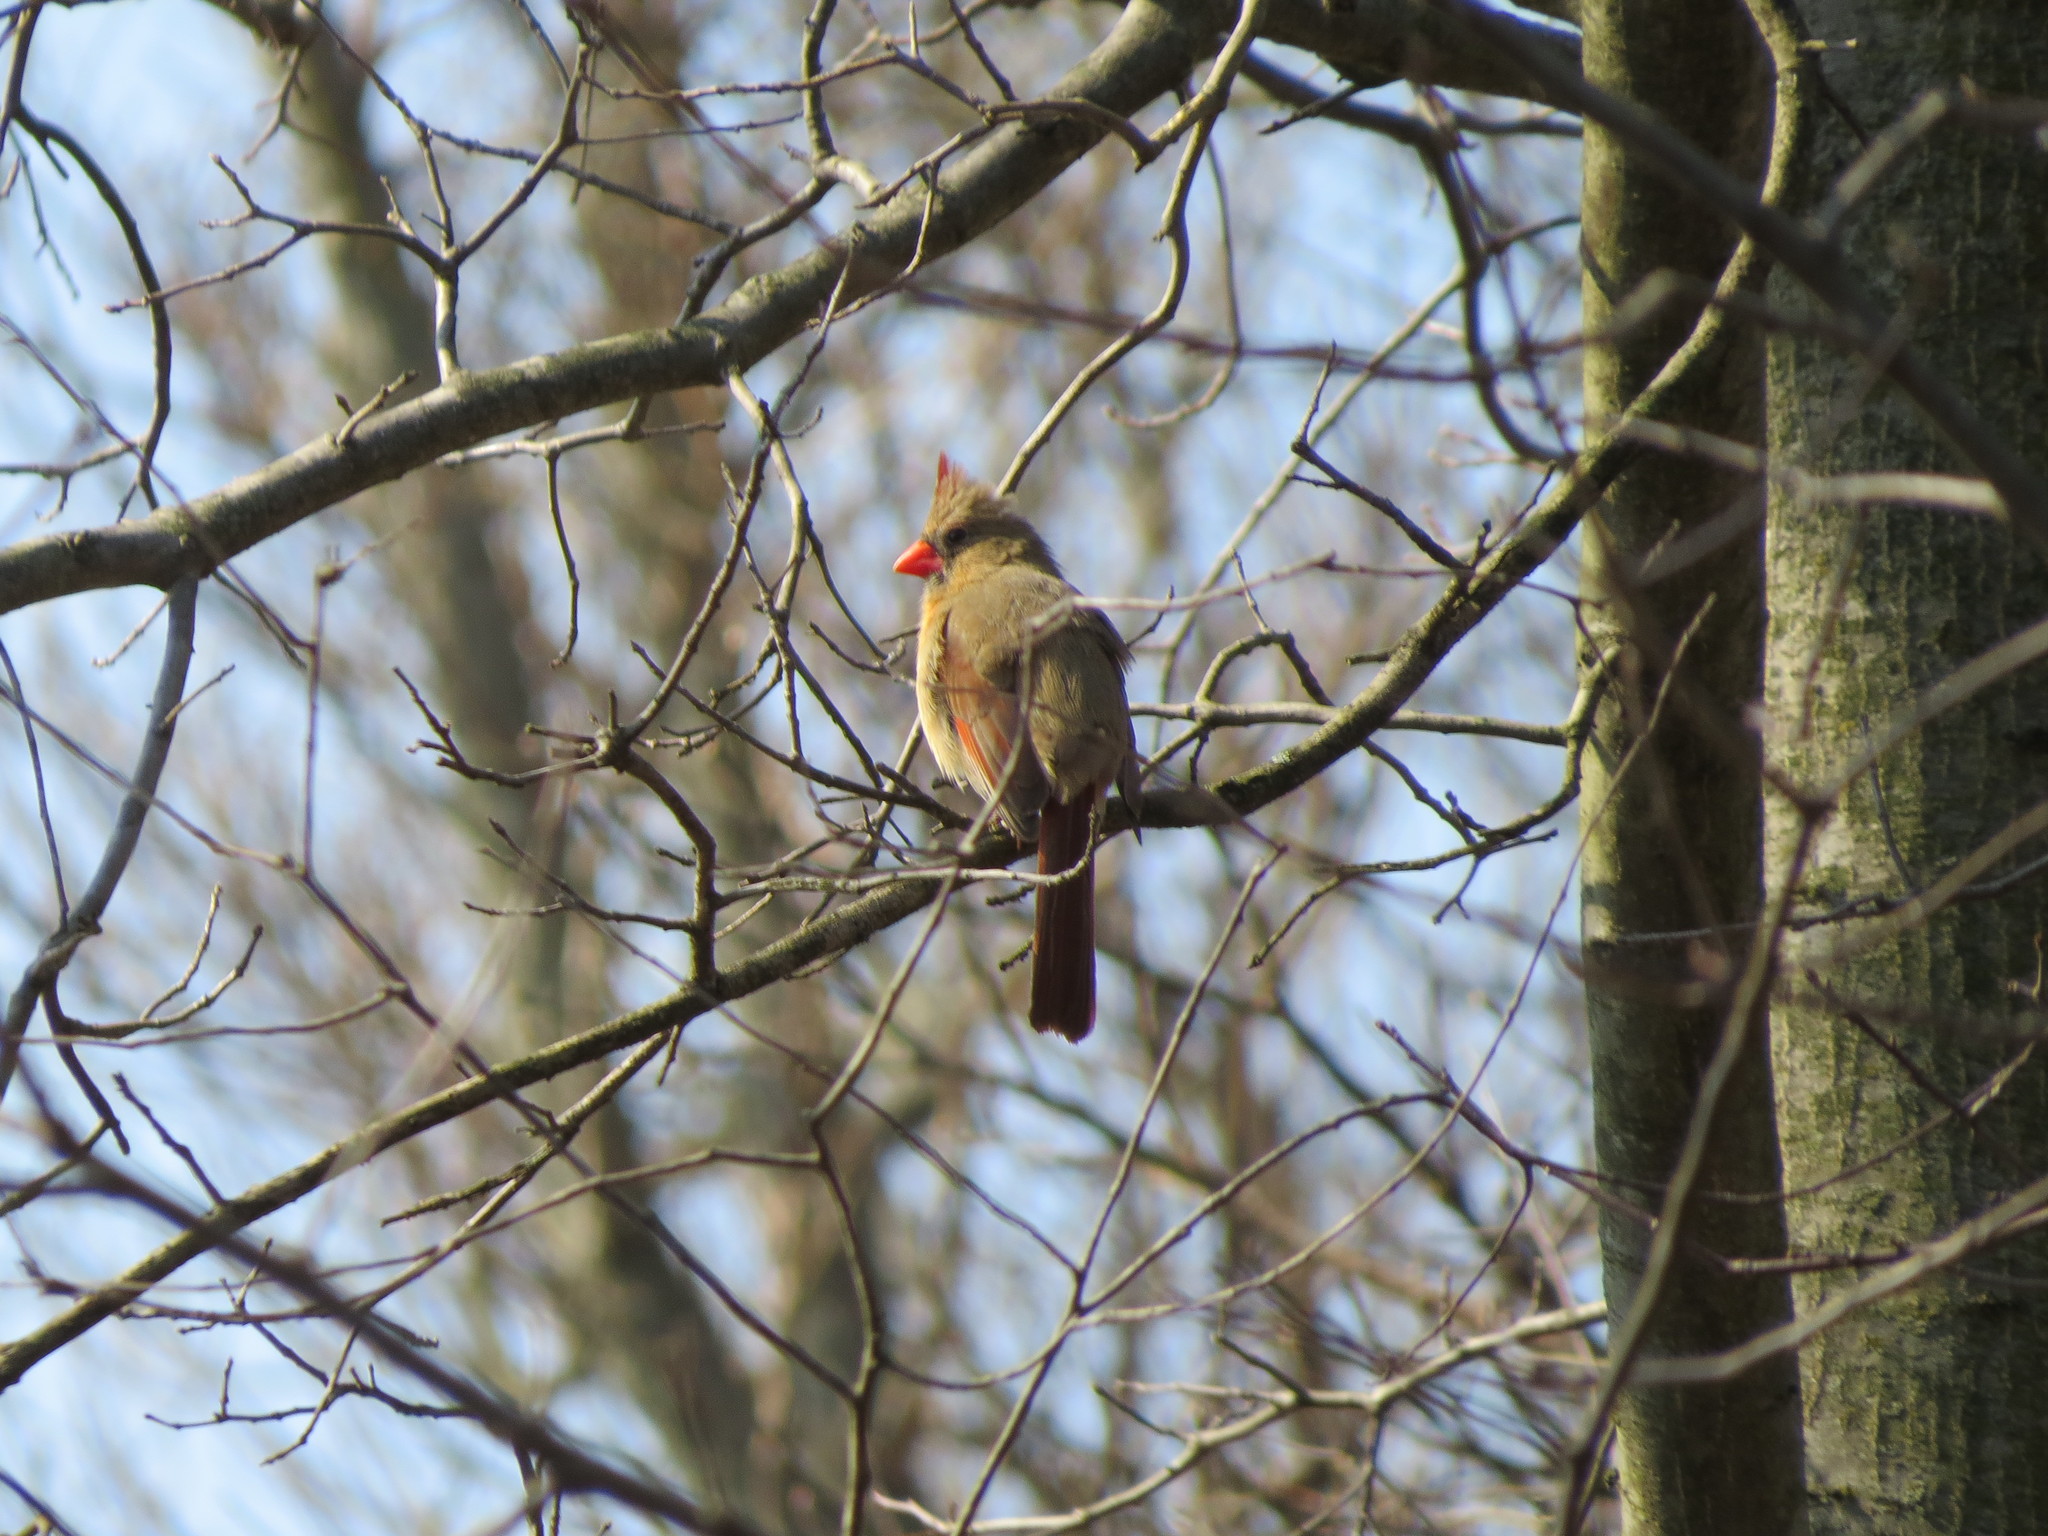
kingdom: Animalia
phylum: Chordata
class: Aves
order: Passeriformes
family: Cardinalidae
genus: Cardinalis
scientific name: Cardinalis cardinalis
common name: Northern cardinal
